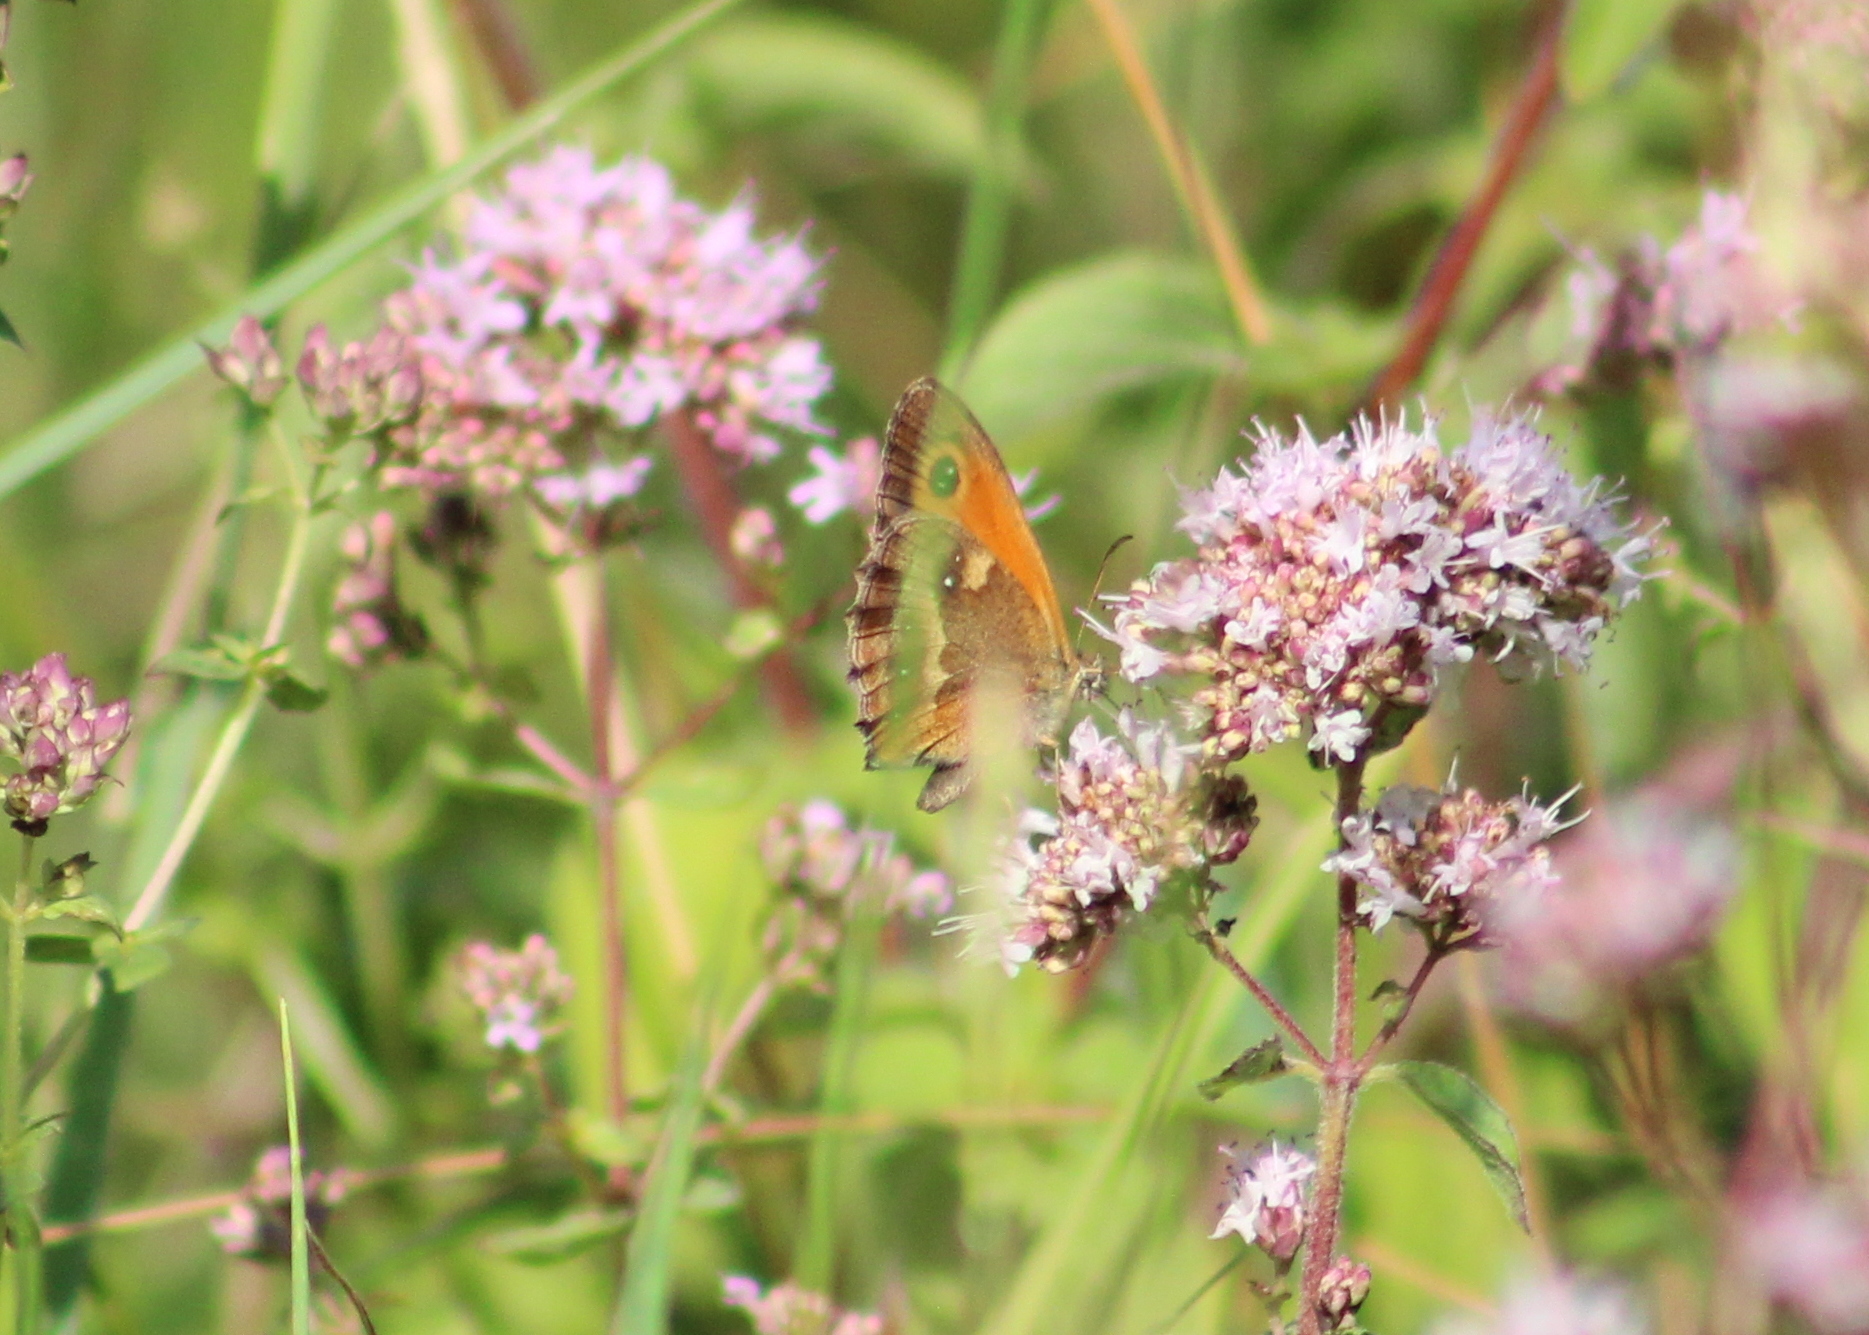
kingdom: Animalia
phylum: Arthropoda
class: Insecta
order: Lepidoptera
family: Nymphalidae
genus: Pyronia
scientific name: Pyronia tithonus
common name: Gatekeeper
